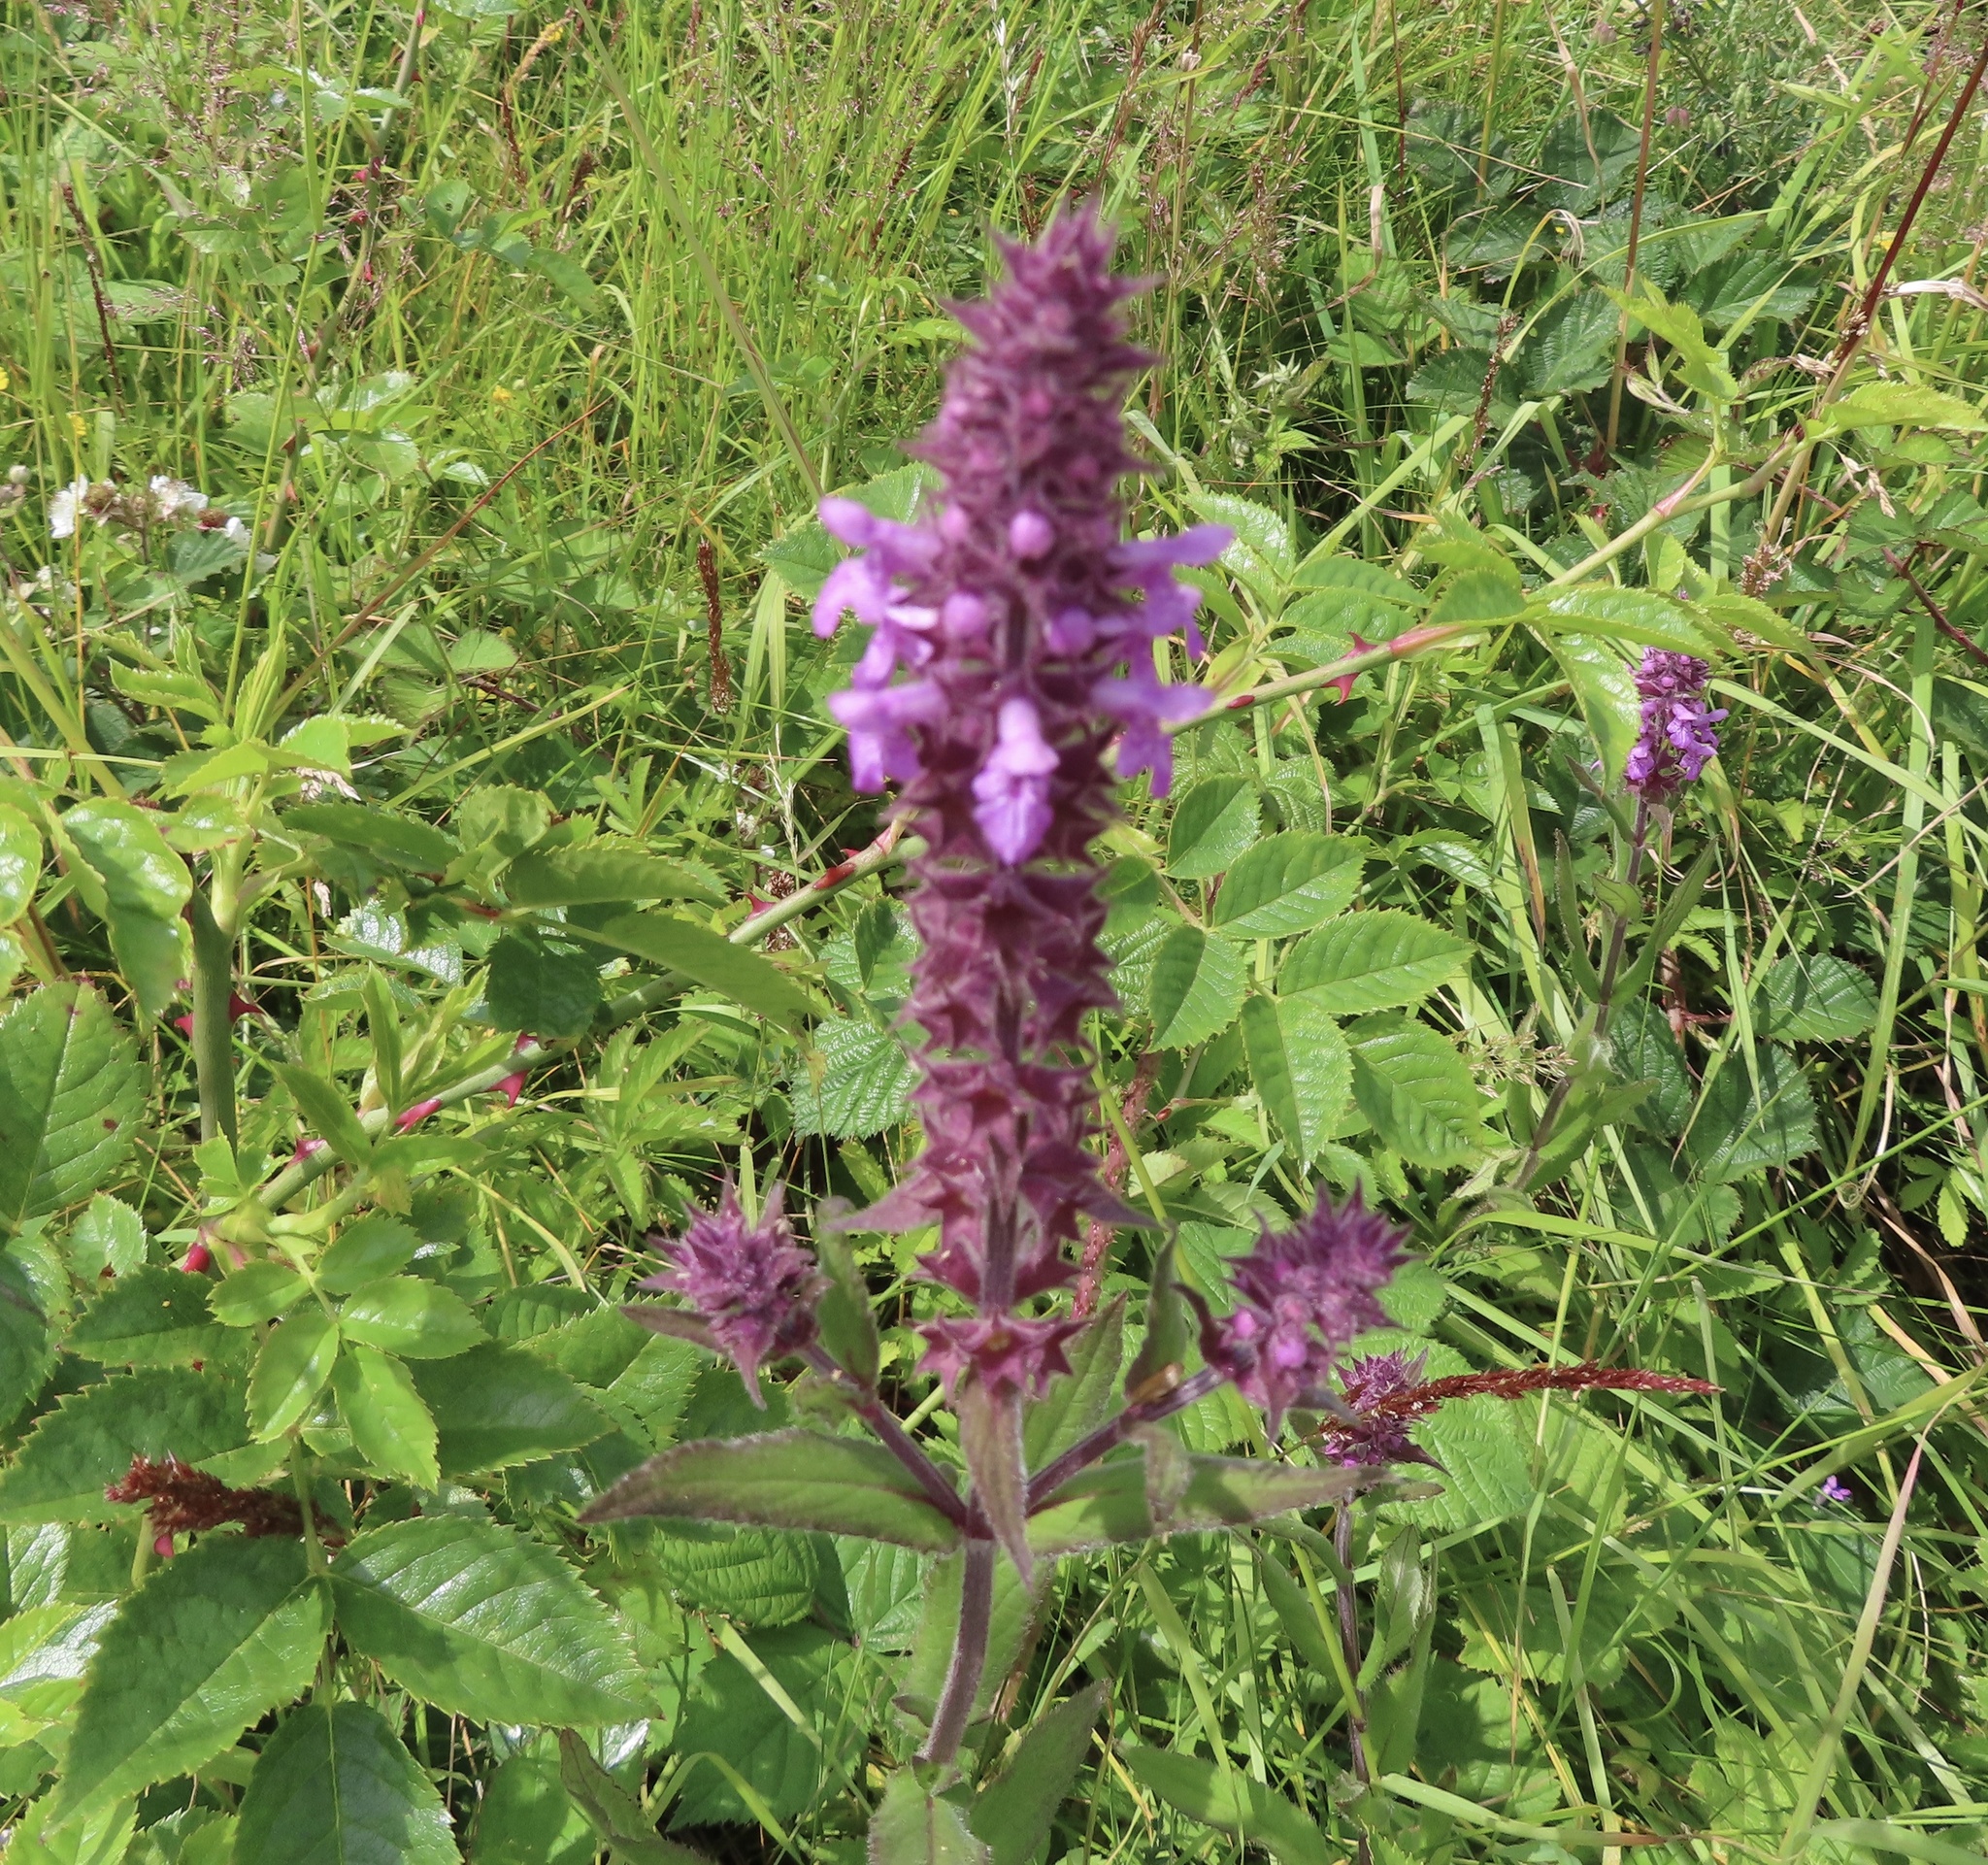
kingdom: Plantae
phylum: Tracheophyta
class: Magnoliopsida
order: Lamiales
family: Lamiaceae
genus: Stachys
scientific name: Stachys palustris
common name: Marsh woundwort
